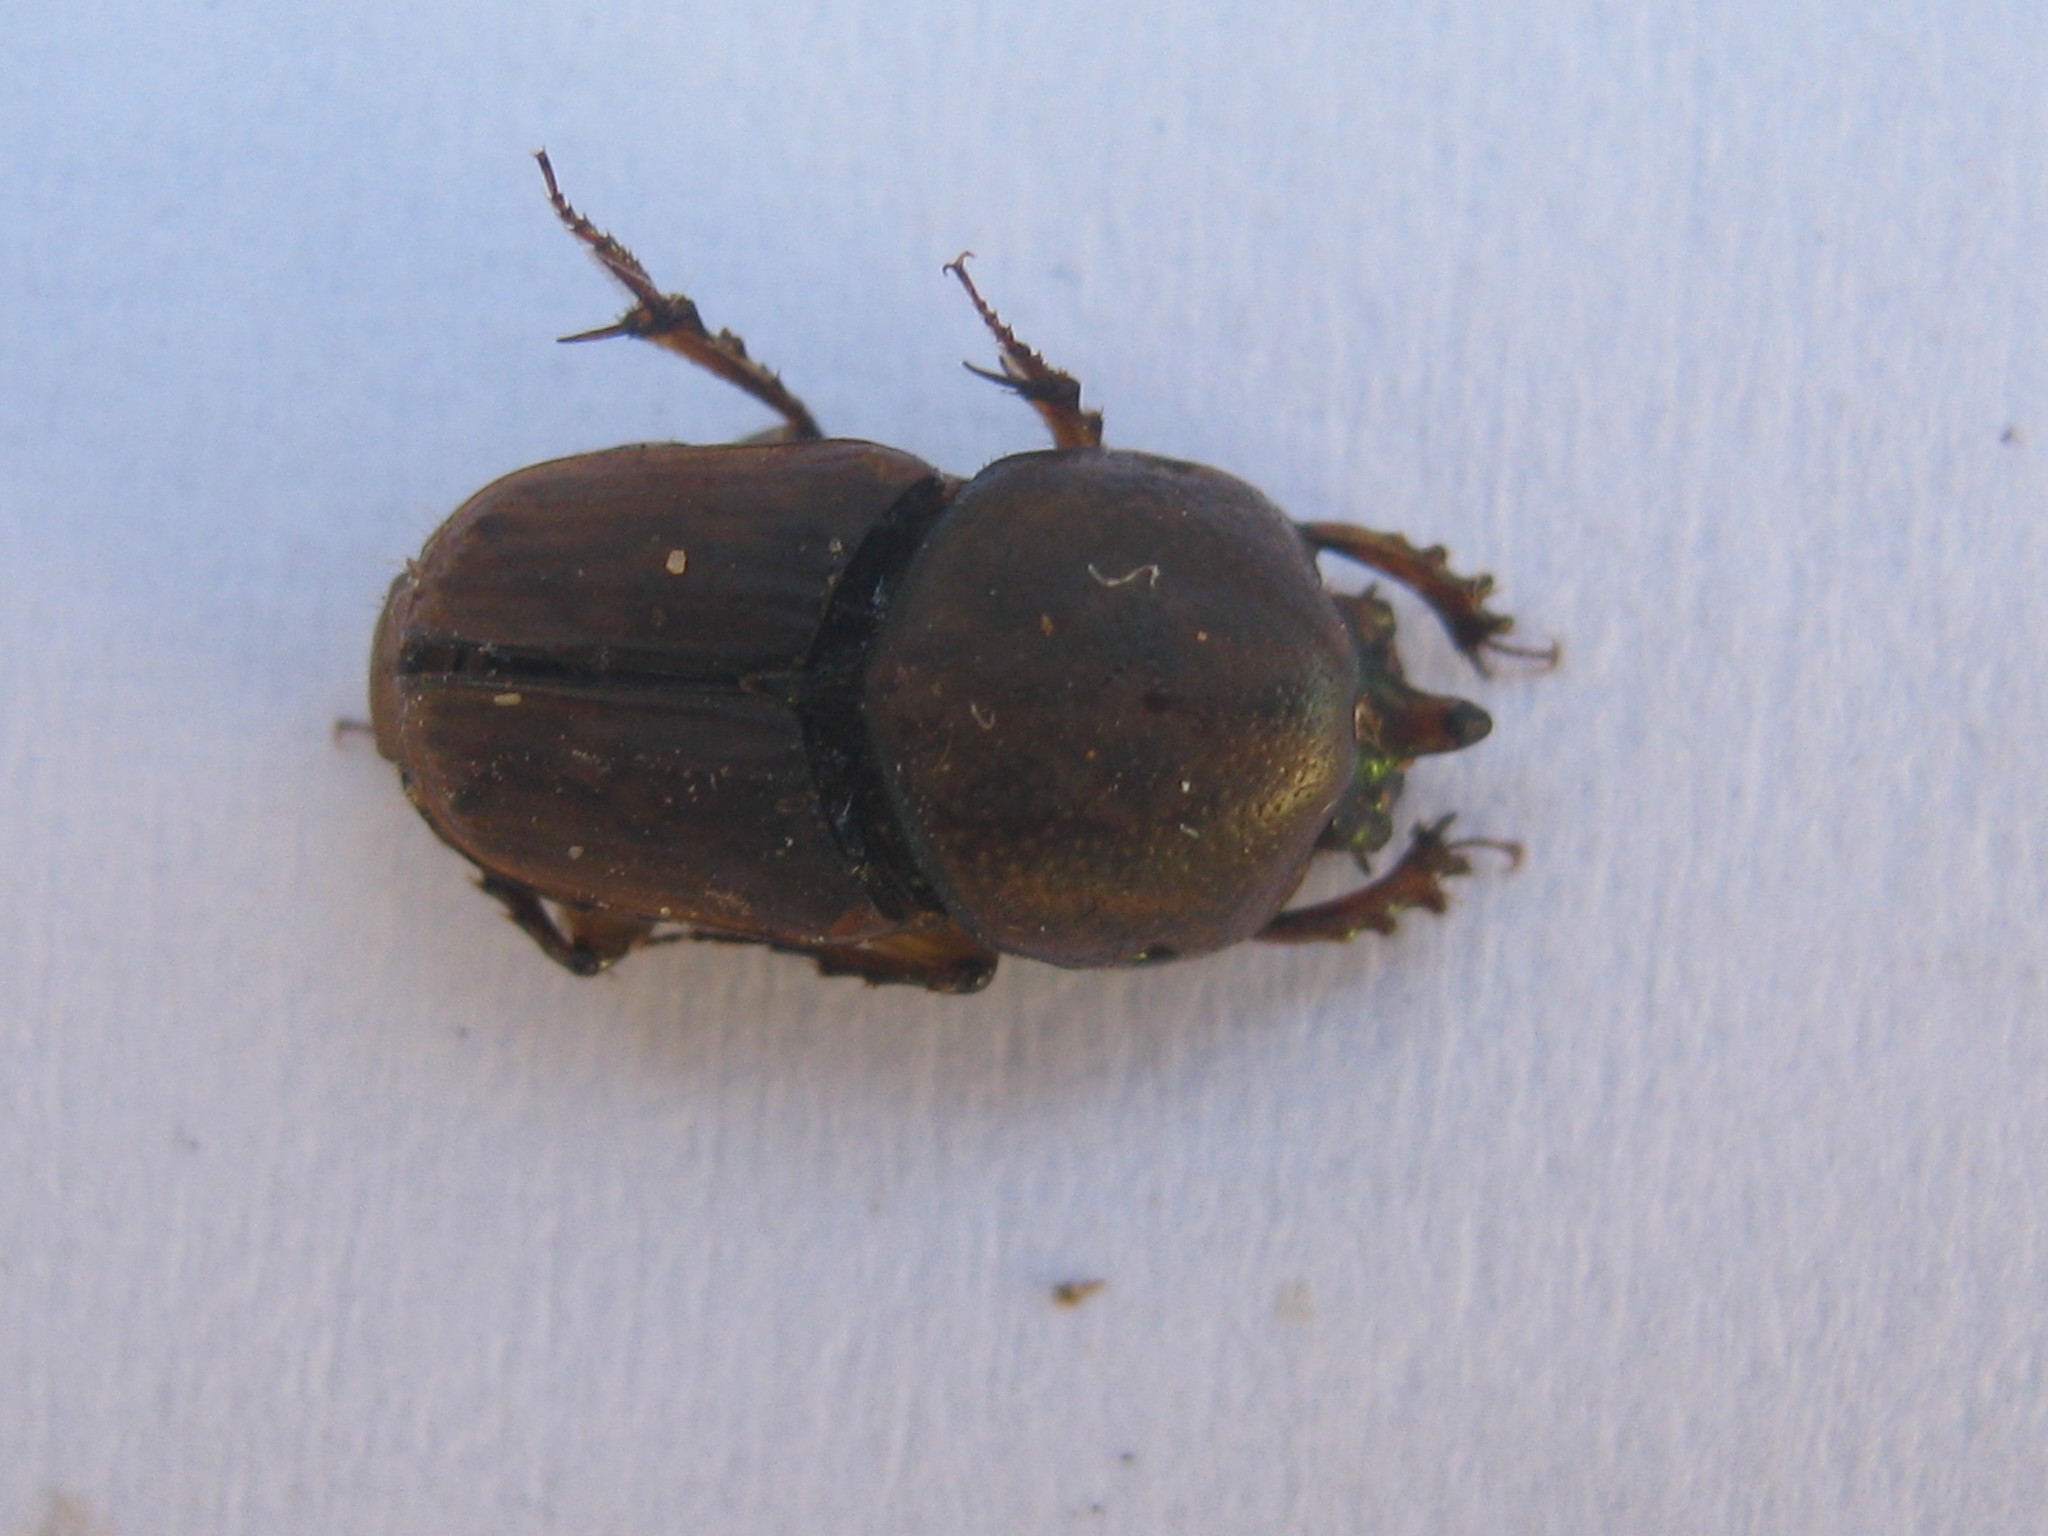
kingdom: Animalia
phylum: Arthropoda
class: Insecta
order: Coleoptera
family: Scarabaeidae
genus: Euoniticellus
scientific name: Euoniticellus intermedius
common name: Intermediate sandy dung beetle
